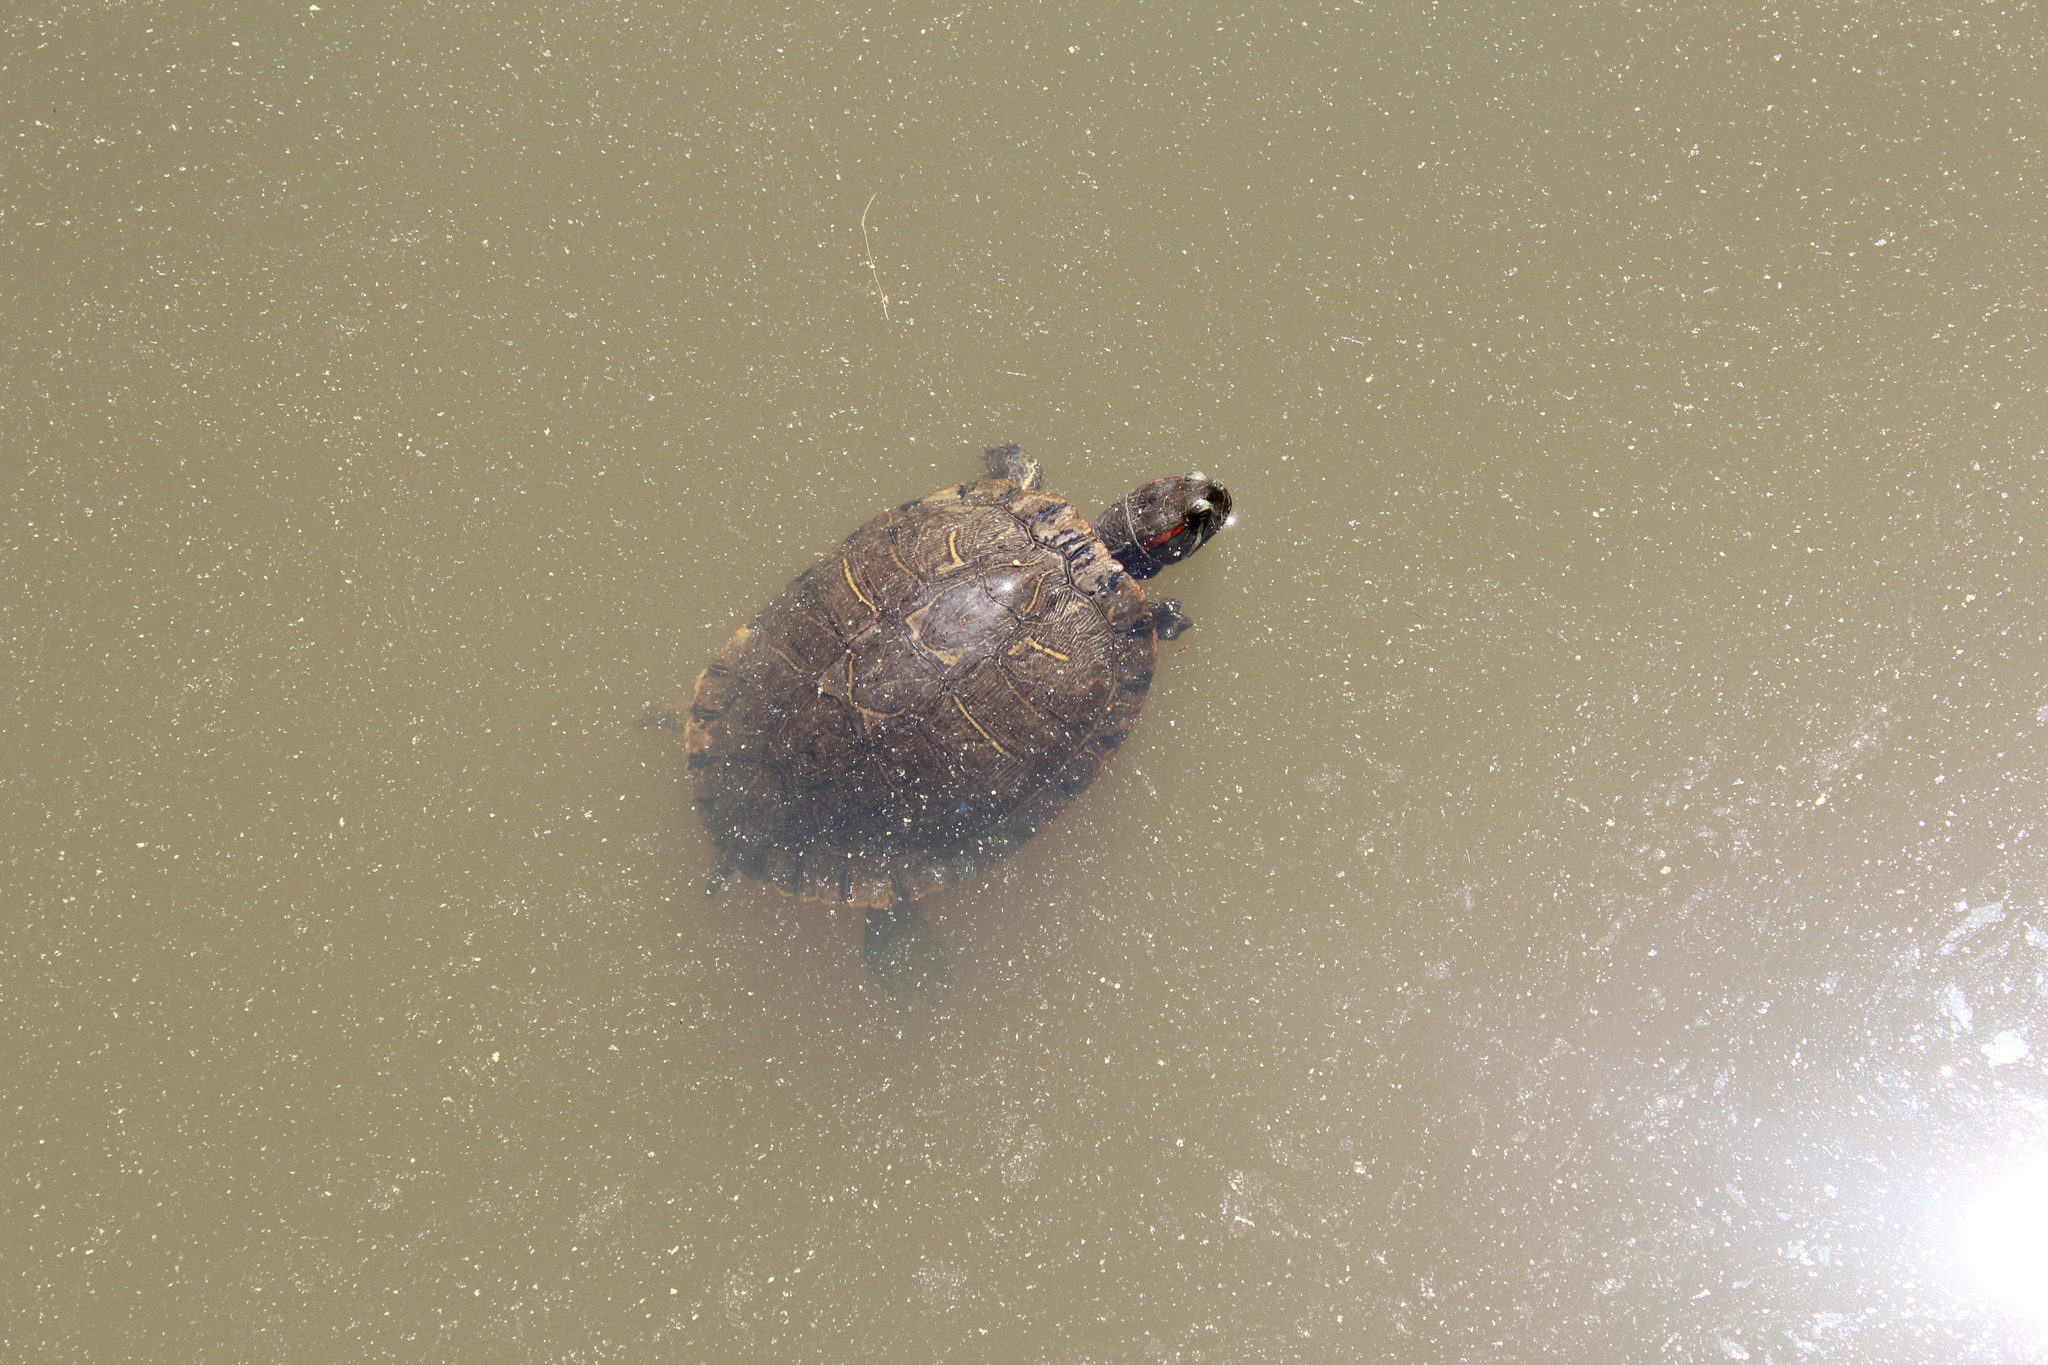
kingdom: Animalia
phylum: Chordata
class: Testudines
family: Emydidae
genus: Trachemys
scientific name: Trachemys scripta
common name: Slider
